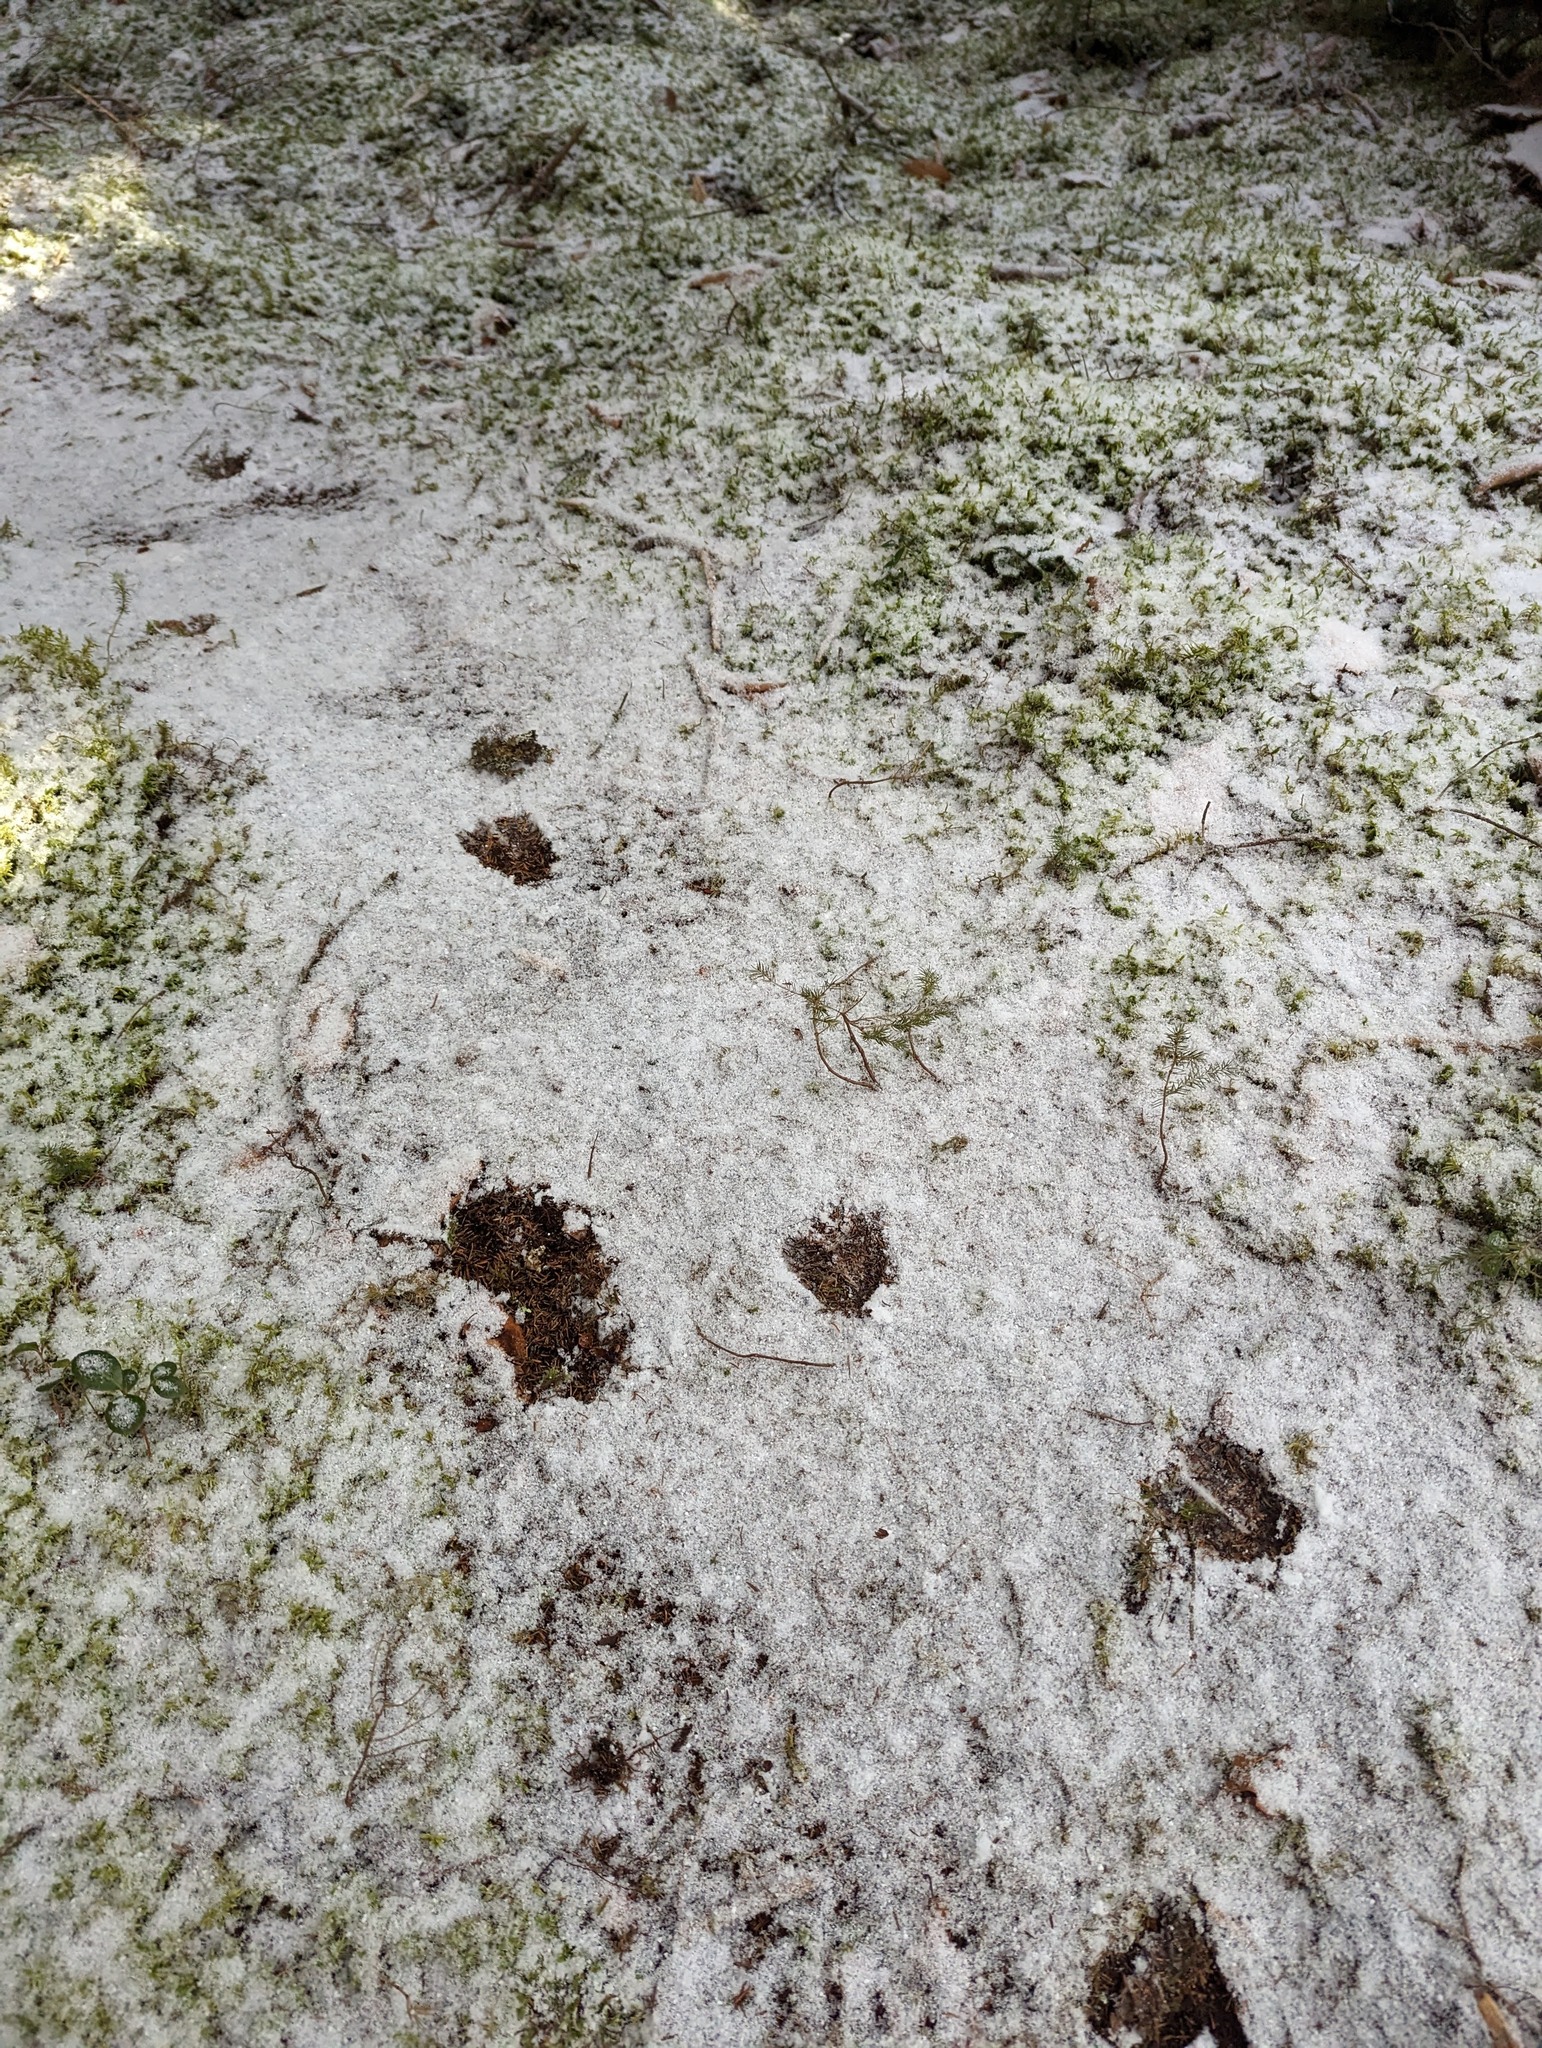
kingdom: Animalia
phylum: Chordata
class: Mammalia
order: Artiodactyla
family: Cervidae
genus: Odocoileus
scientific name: Odocoileus virginianus
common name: White-tailed deer
